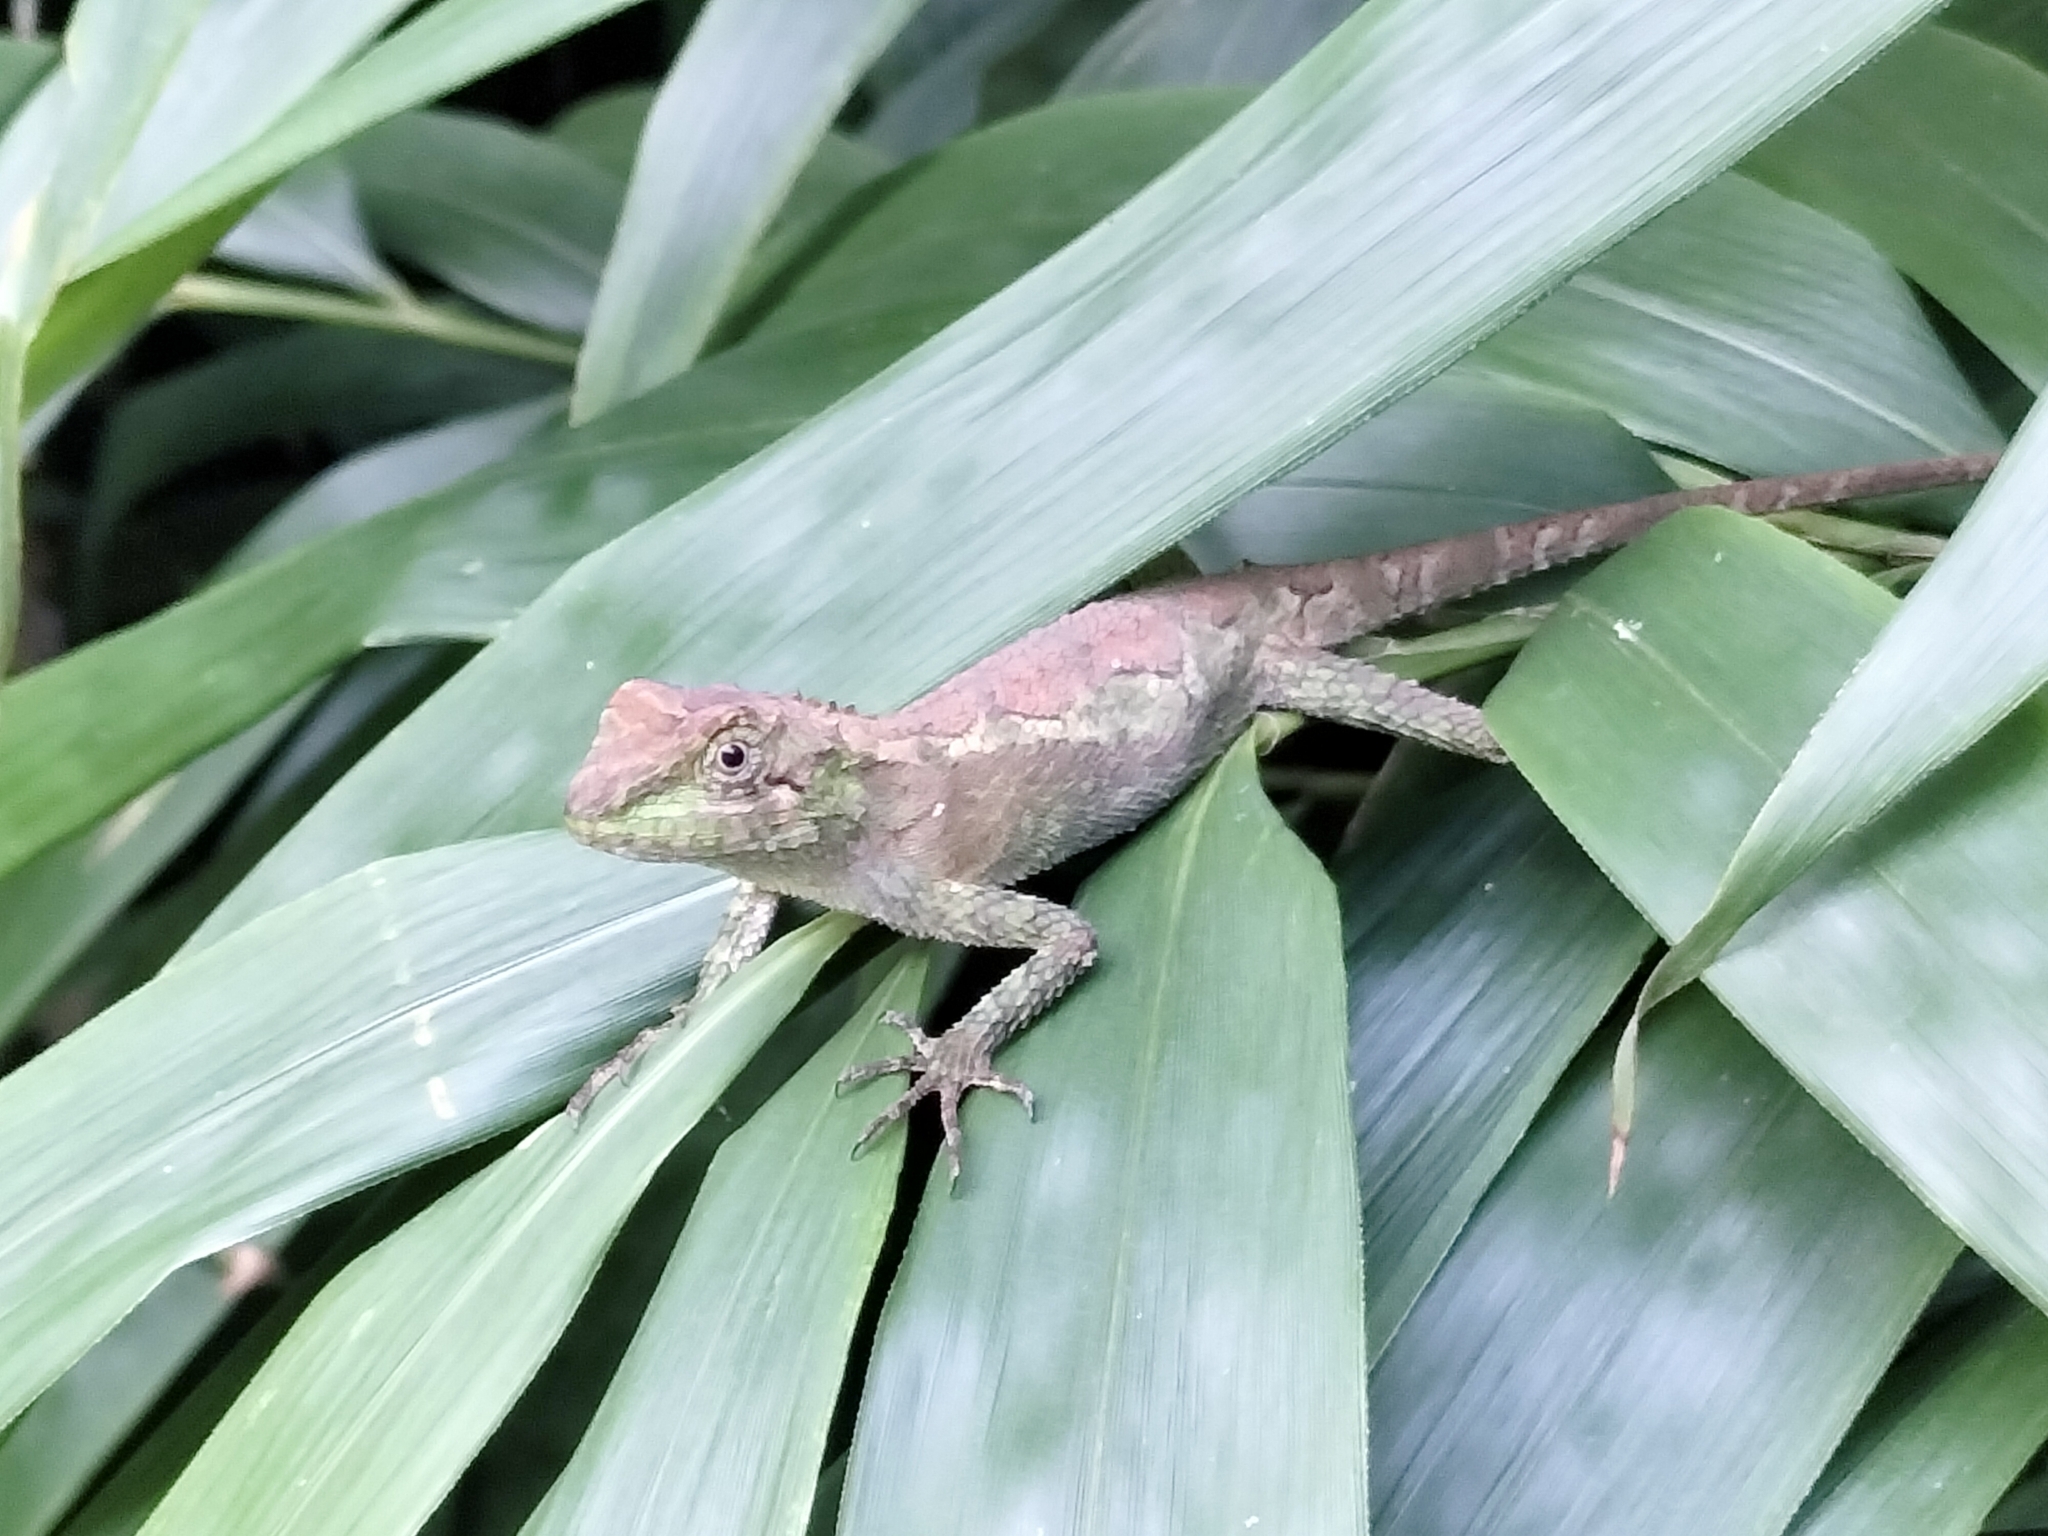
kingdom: Fungi
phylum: Basidiomycota
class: Agaricomycetes
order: Boletales
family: Diplocystidiaceae
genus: Diploderma
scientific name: Diploderma polygonatum
